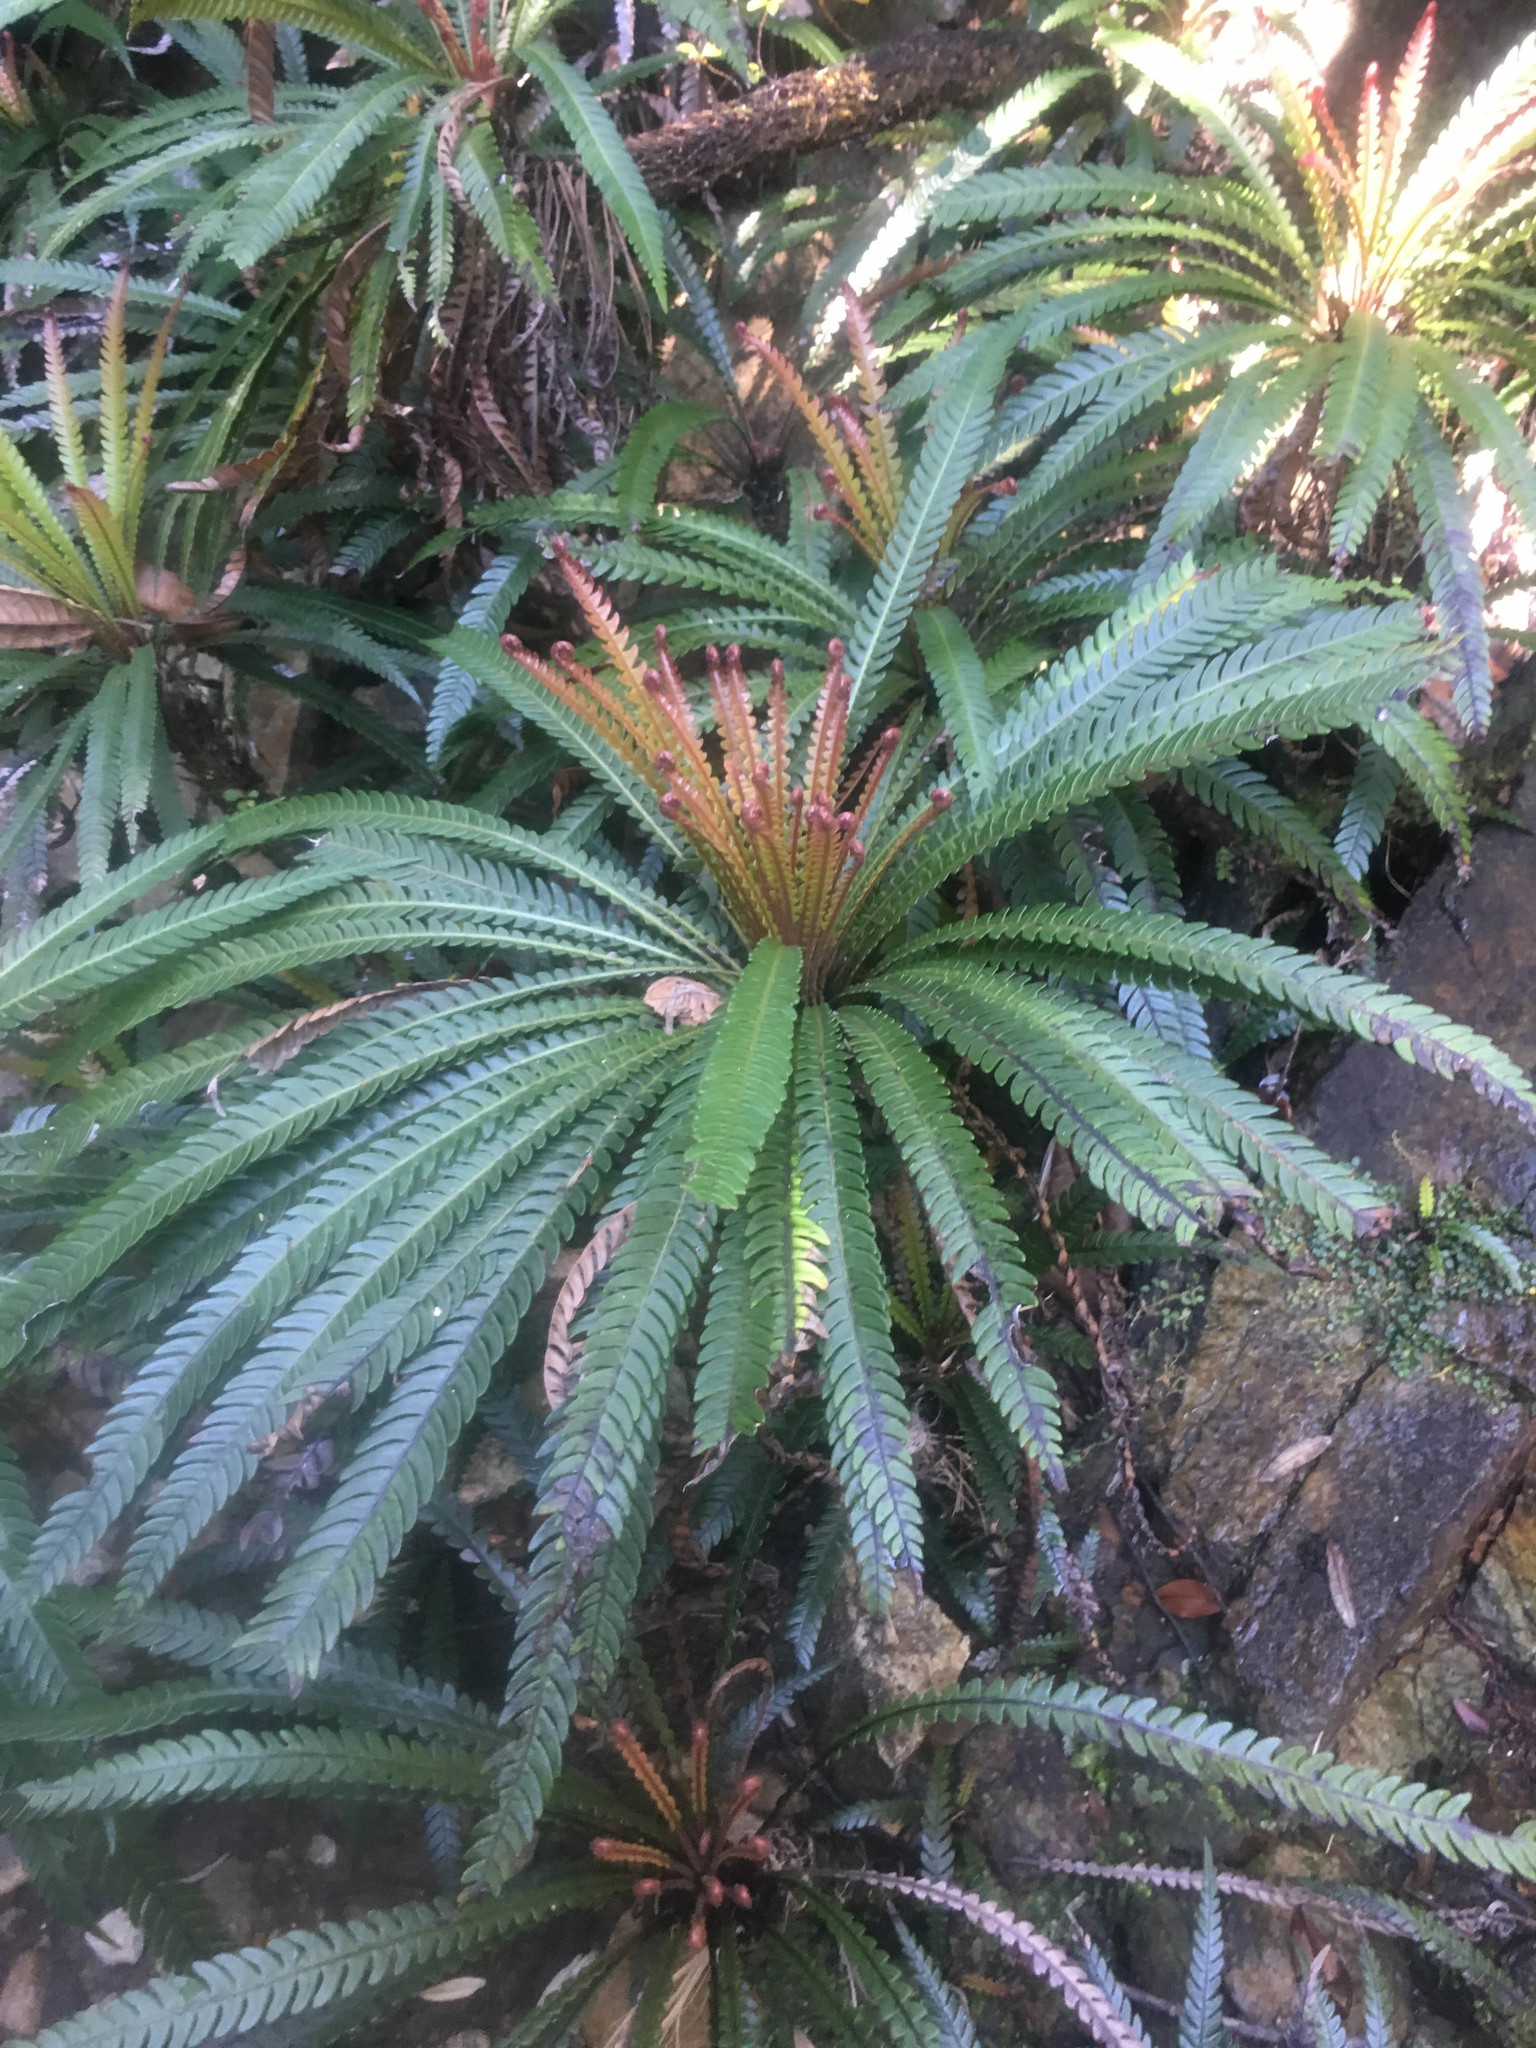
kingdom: Plantae
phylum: Tracheophyta
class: Polypodiopsida
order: Polypodiales
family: Blechnaceae
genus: Oceaniopteris
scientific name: Oceaniopteris obtusata
